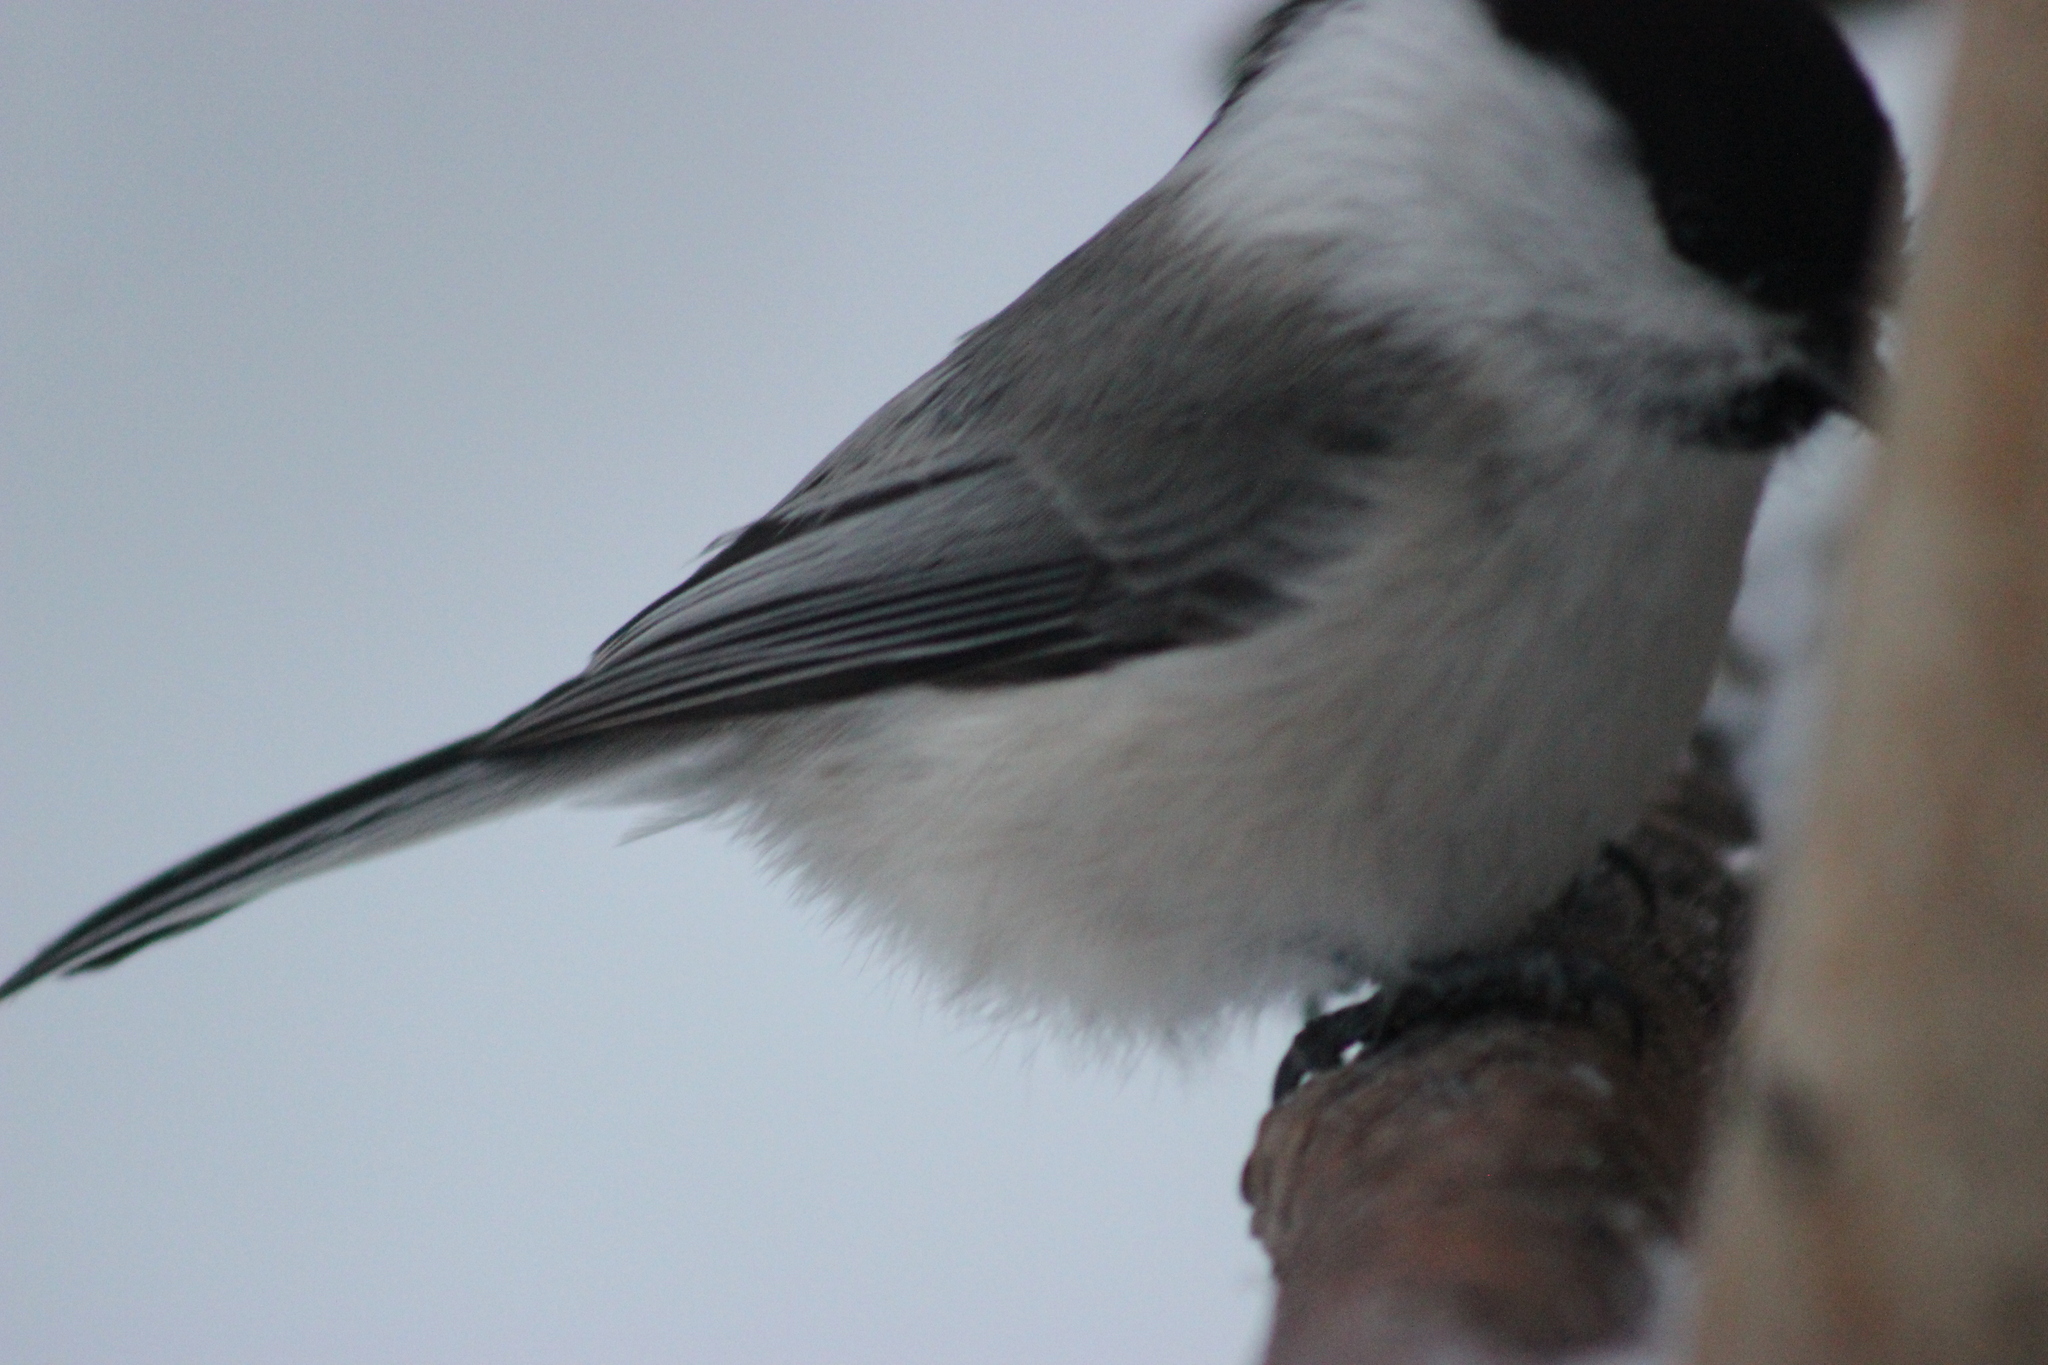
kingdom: Animalia
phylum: Chordata
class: Aves
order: Passeriformes
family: Paridae
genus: Poecile
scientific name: Poecile montanus
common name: Willow tit
